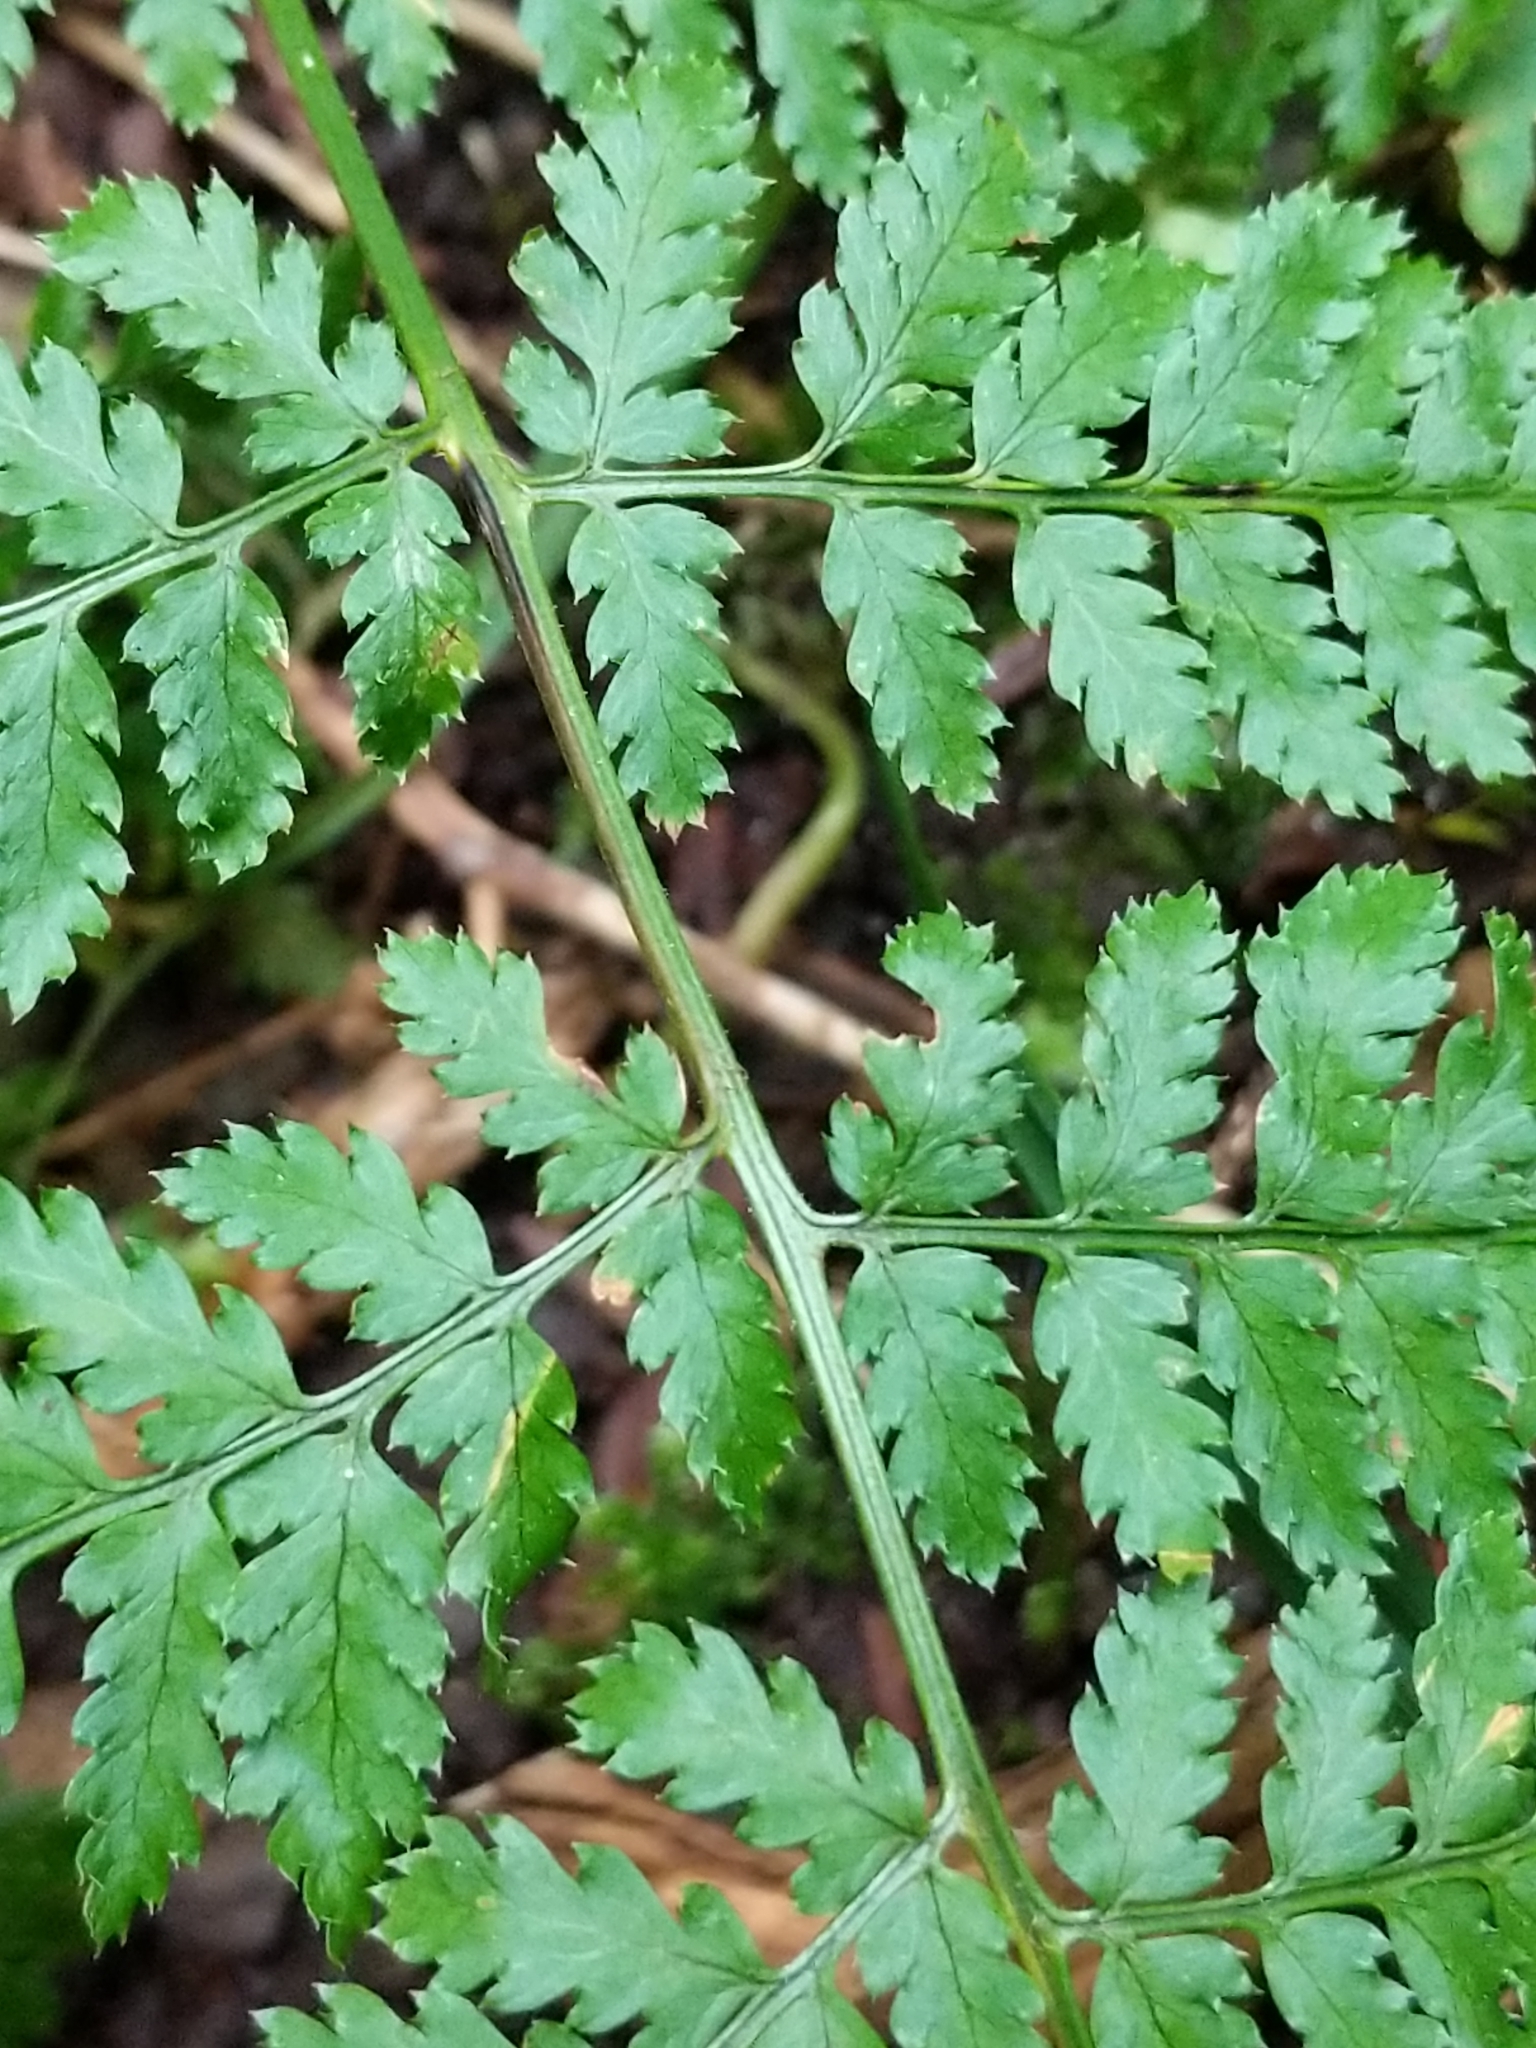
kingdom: Plantae
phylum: Tracheophyta
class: Polypodiopsida
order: Polypodiales
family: Dryopteridaceae
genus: Dryopteris
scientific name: Dryopteris intermedia
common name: Evergreen wood fern
